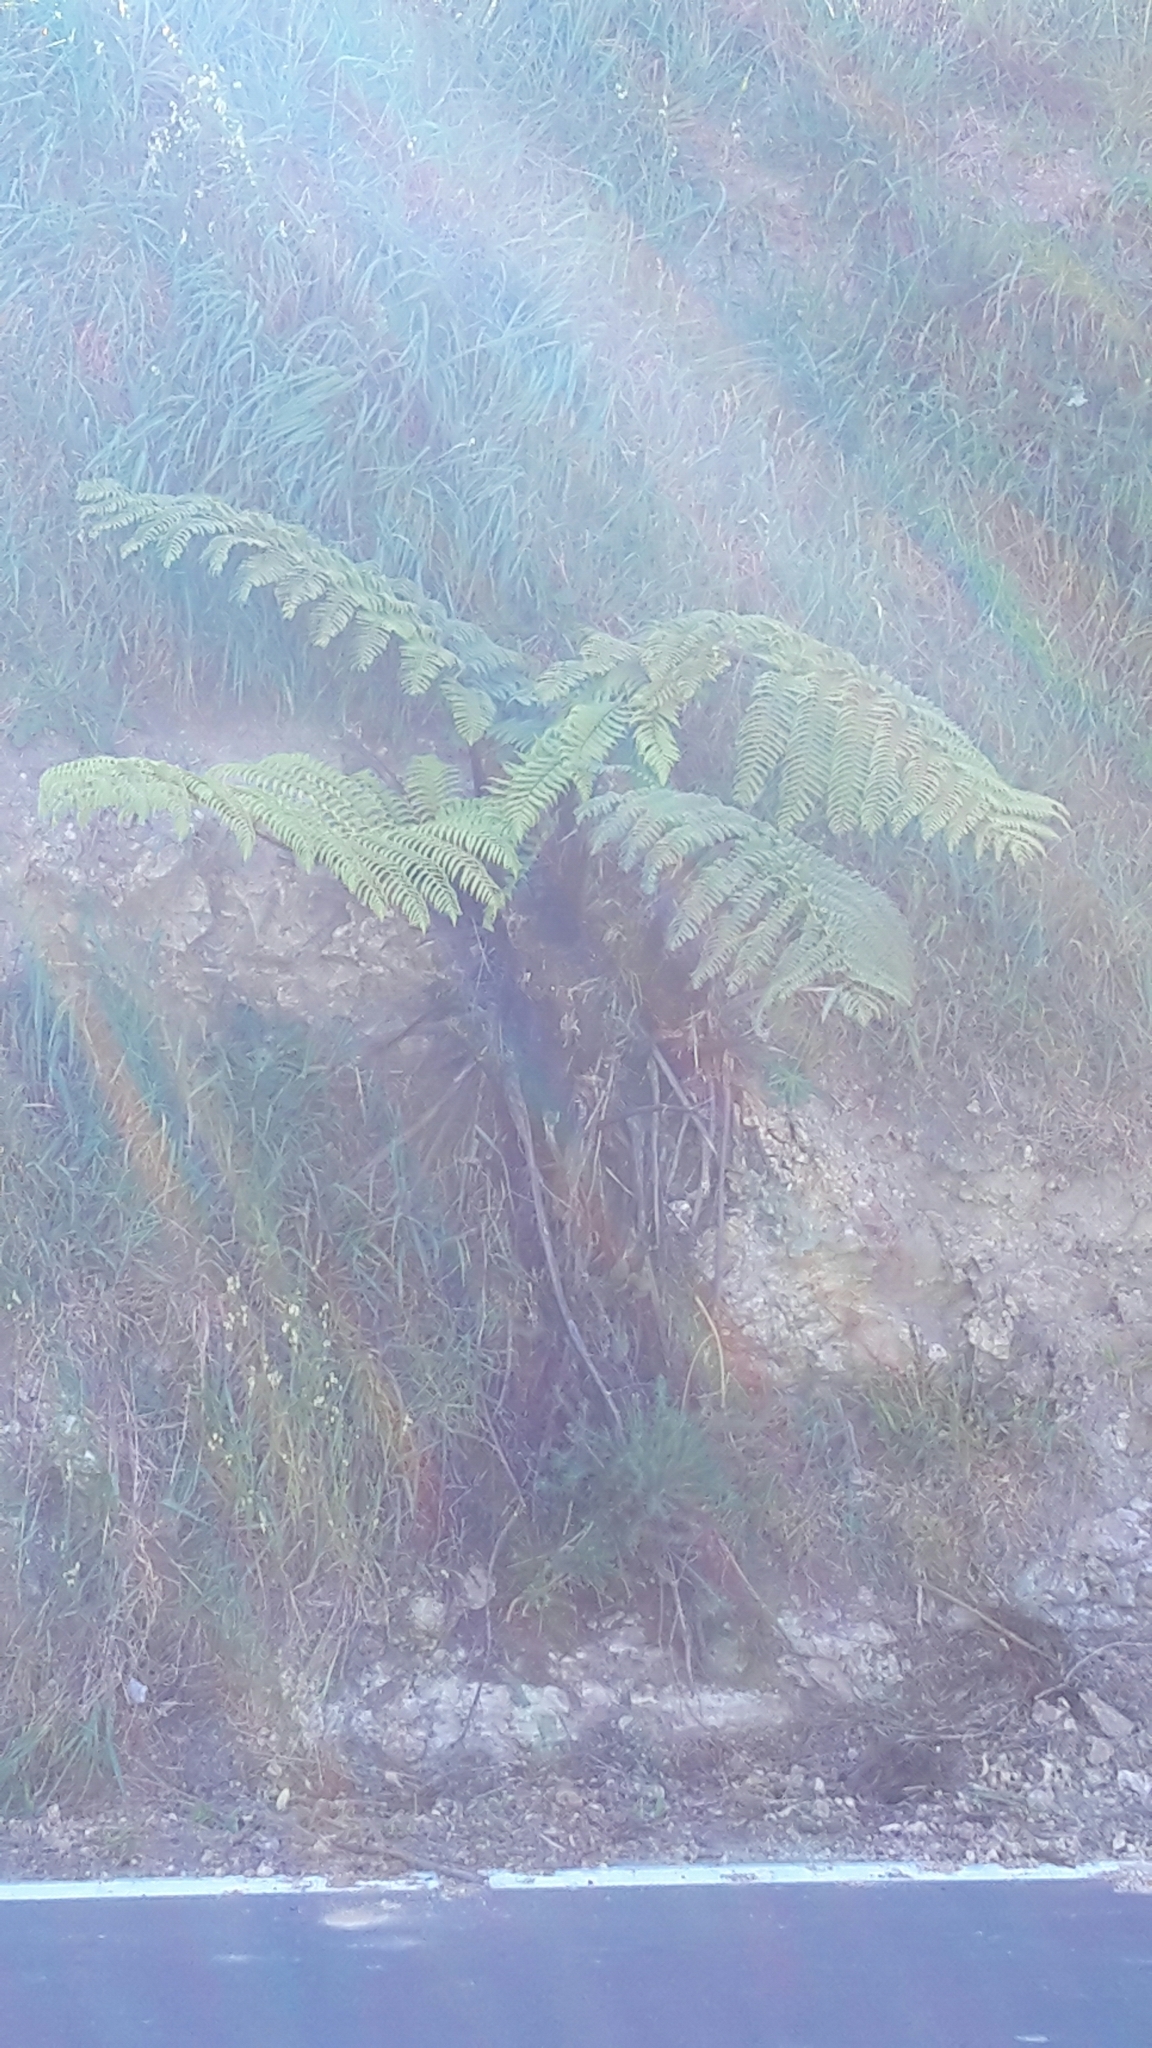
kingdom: Plantae
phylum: Tracheophyta
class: Polypodiopsida
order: Cyatheales
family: Cyatheaceae
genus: Sphaeropteris
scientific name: Sphaeropteris medullaris
